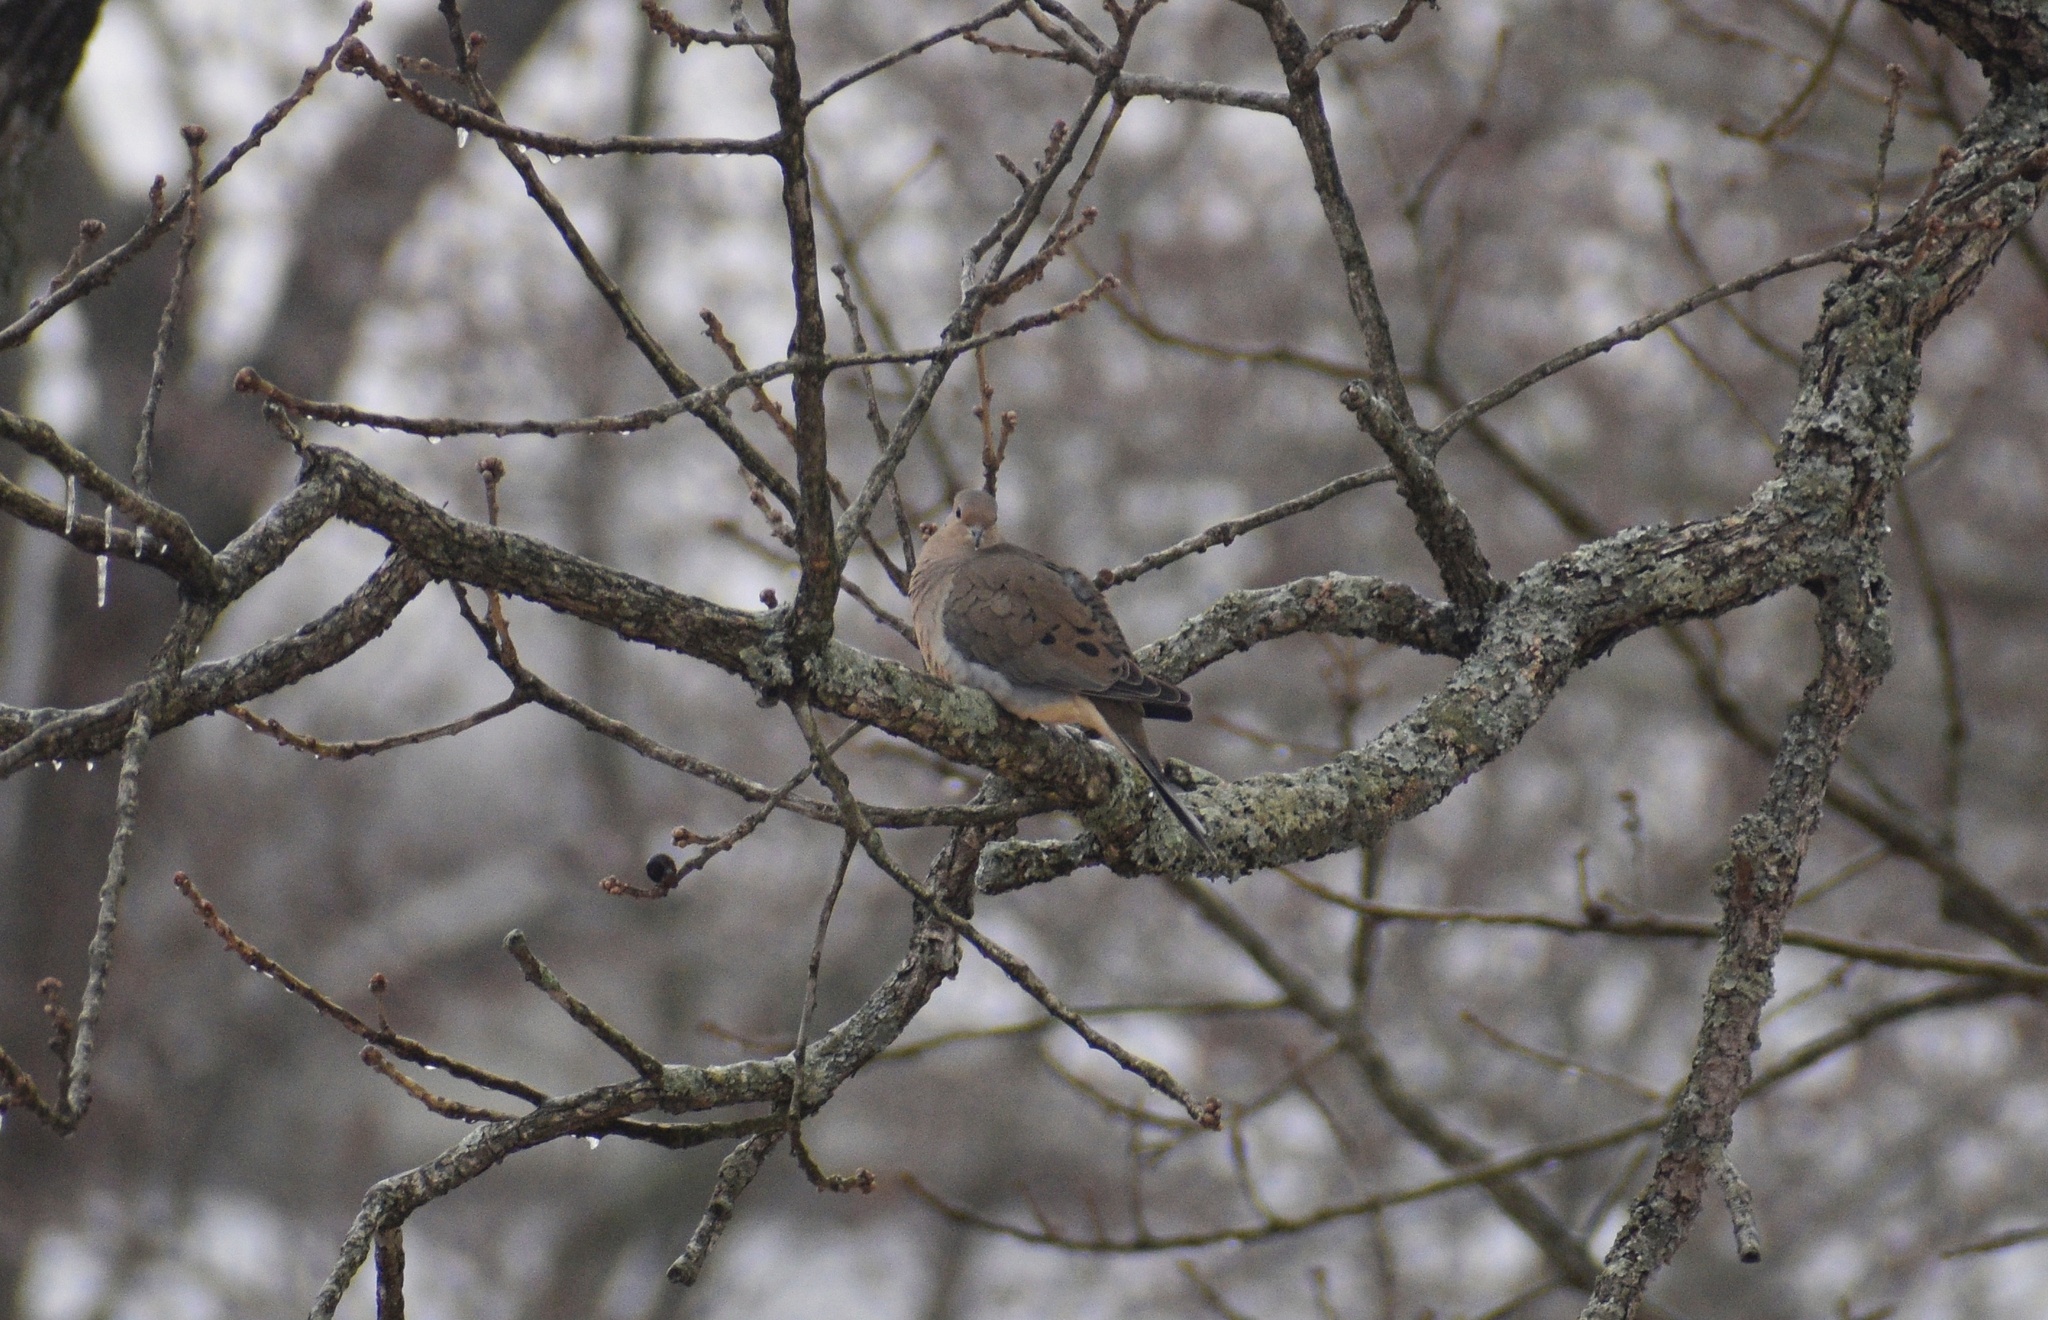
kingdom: Animalia
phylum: Chordata
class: Aves
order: Columbiformes
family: Columbidae
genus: Zenaida
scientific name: Zenaida macroura
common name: Mourning dove
